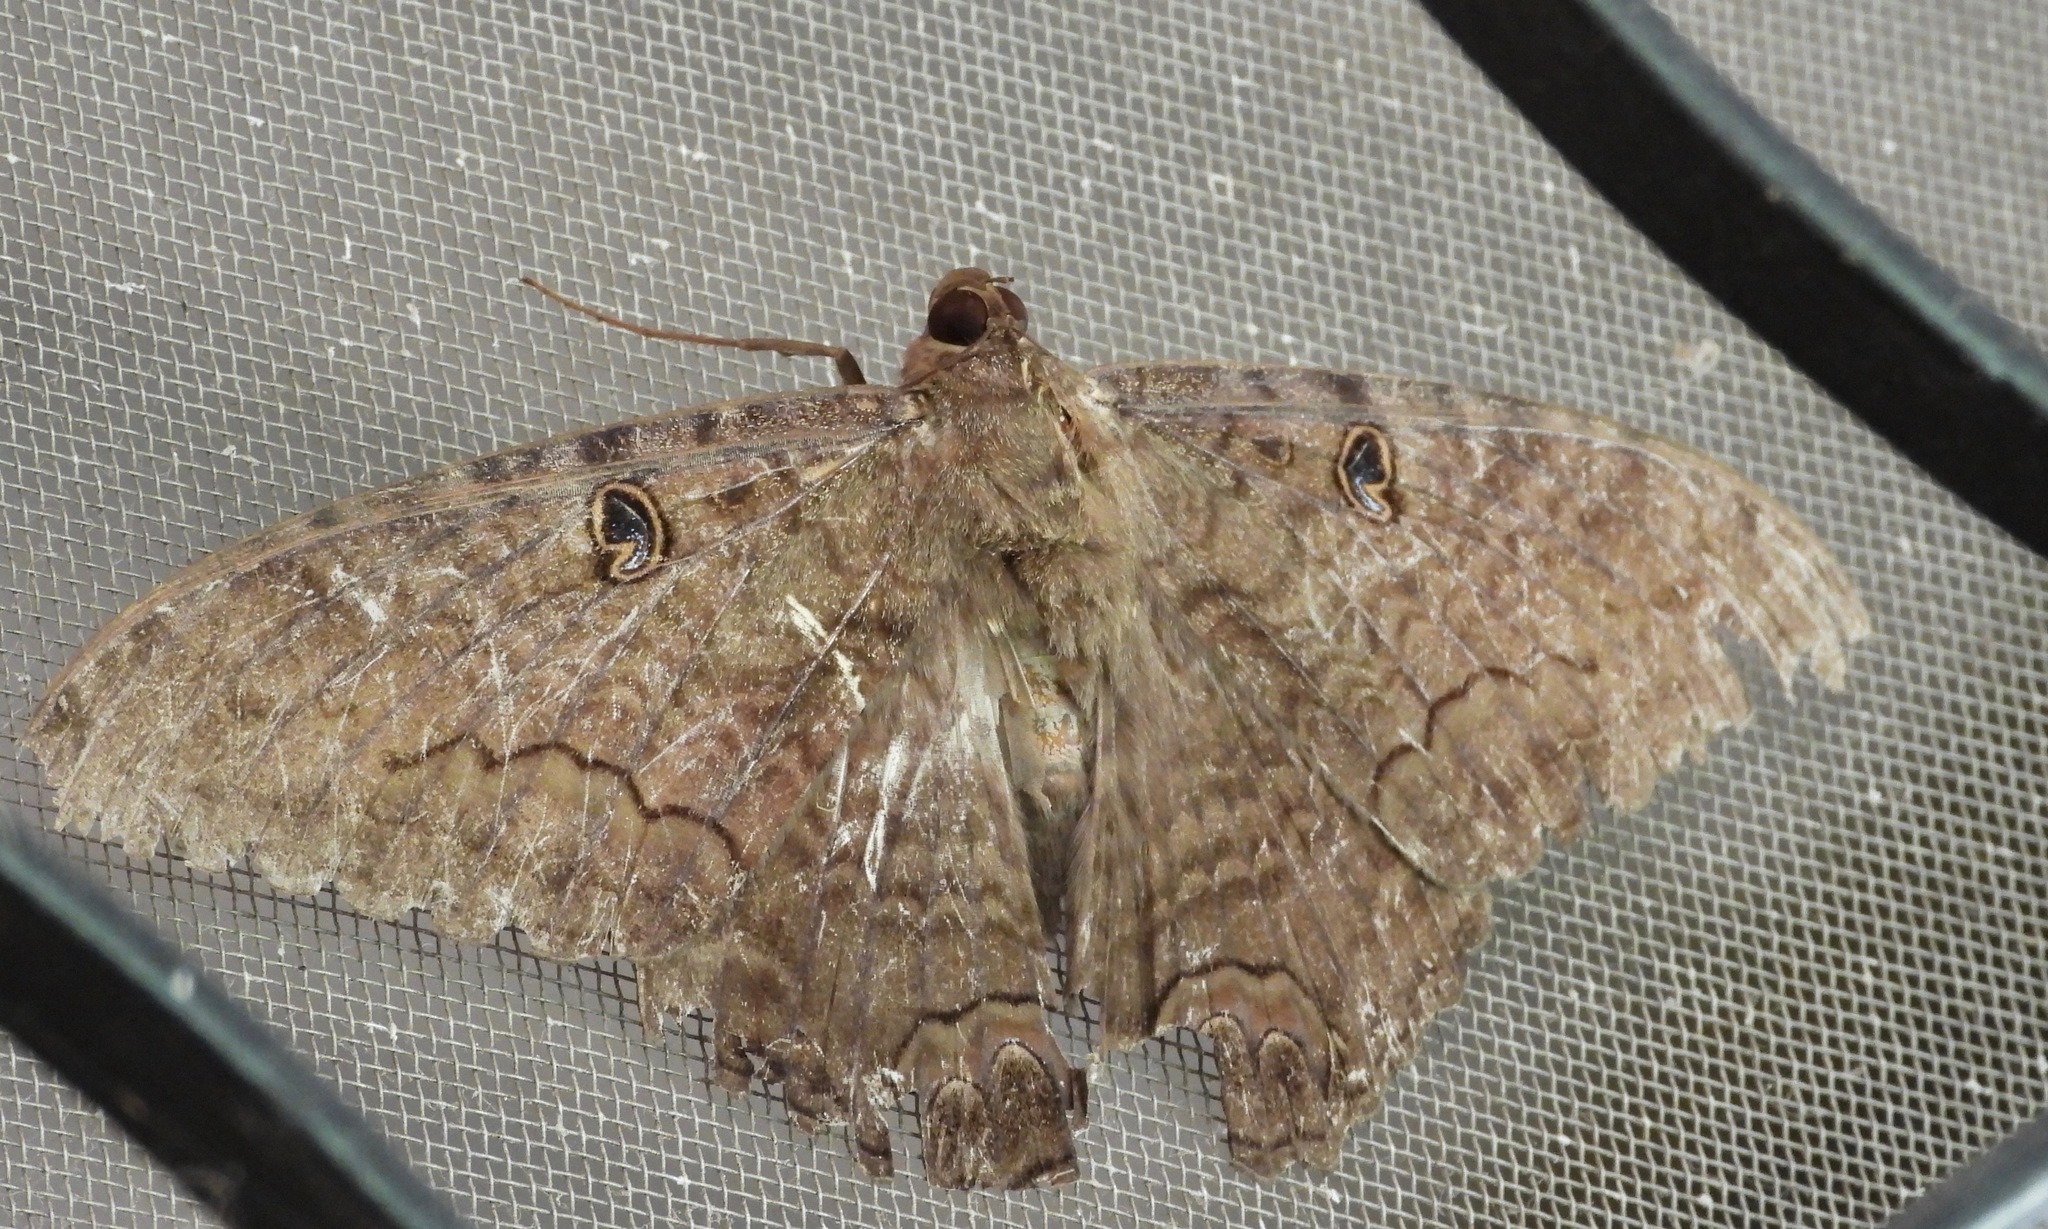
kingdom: Animalia
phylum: Arthropoda
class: Insecta
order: Lepidoptera
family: Erebidae
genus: Ascalapha
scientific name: Ascalapha odorata
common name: Black witch
